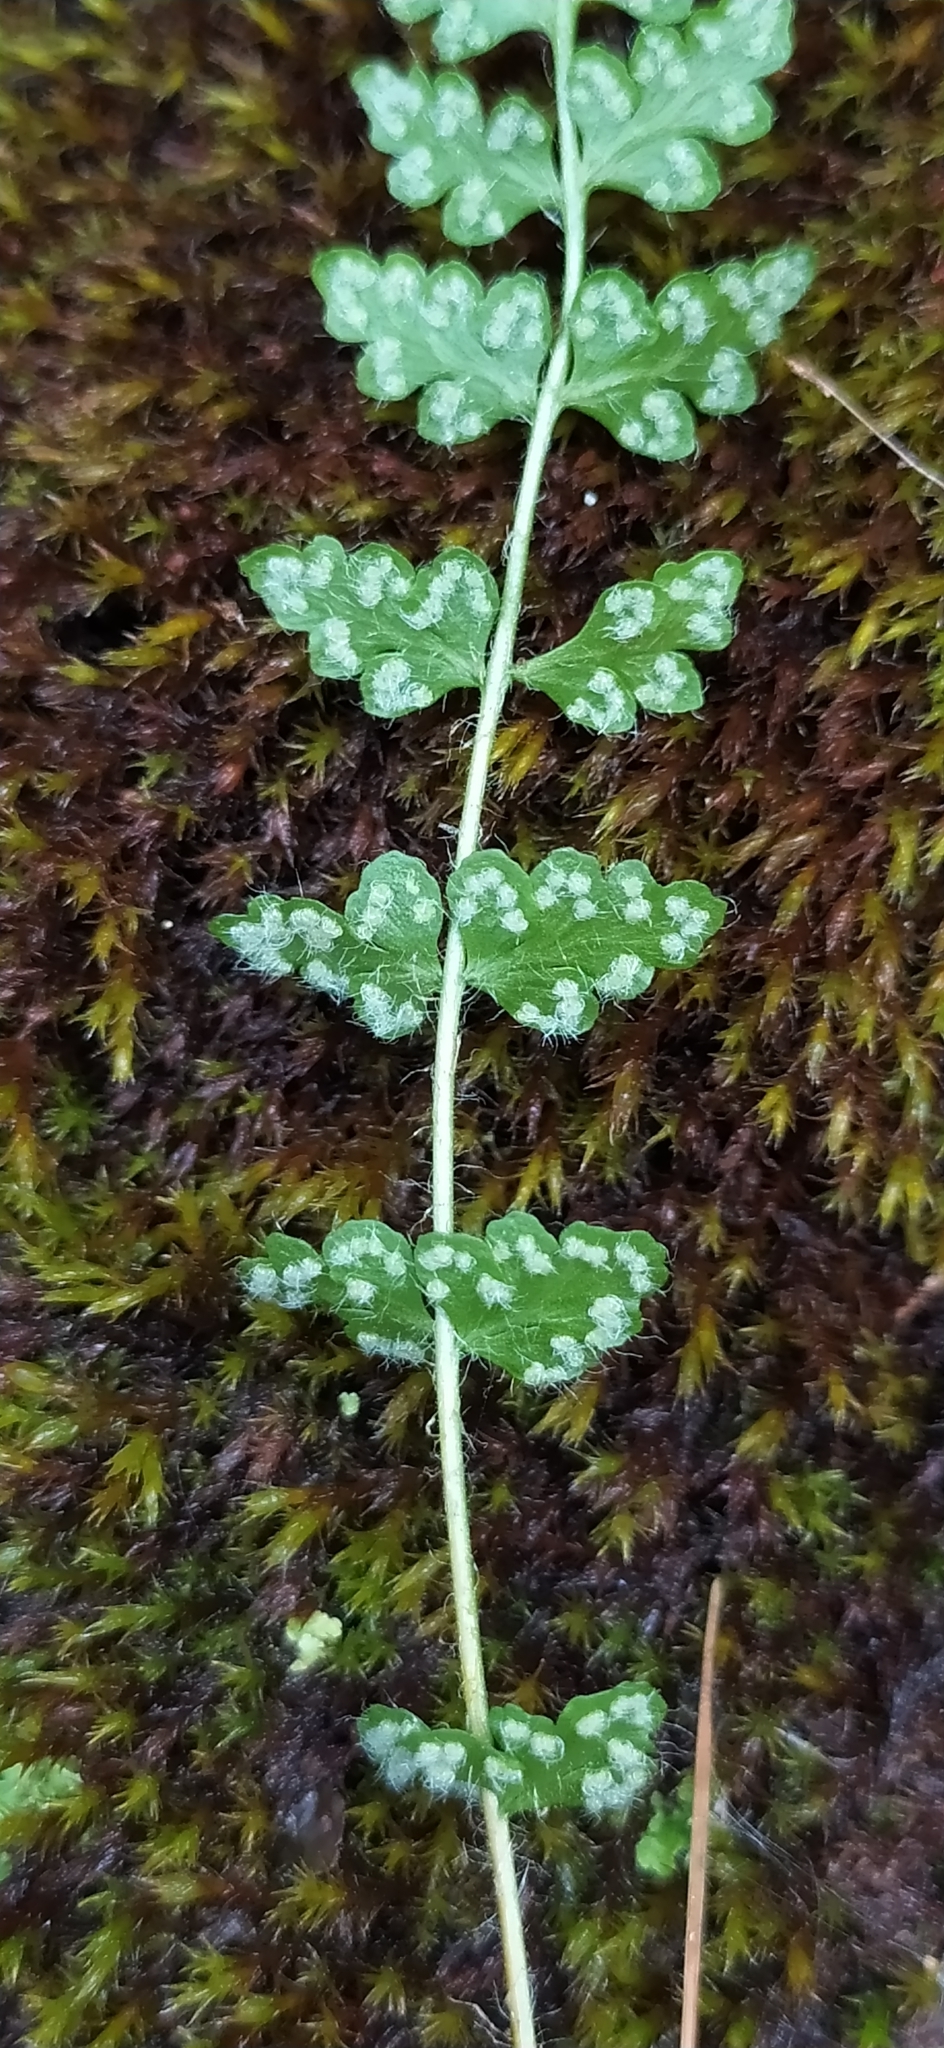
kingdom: Plantae
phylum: Tracheophyta
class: Polypodiopsida
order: Polypodiales
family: Woodsiaceae
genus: Woodsia
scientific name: Woodsia alpina
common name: Alpine woodsia
